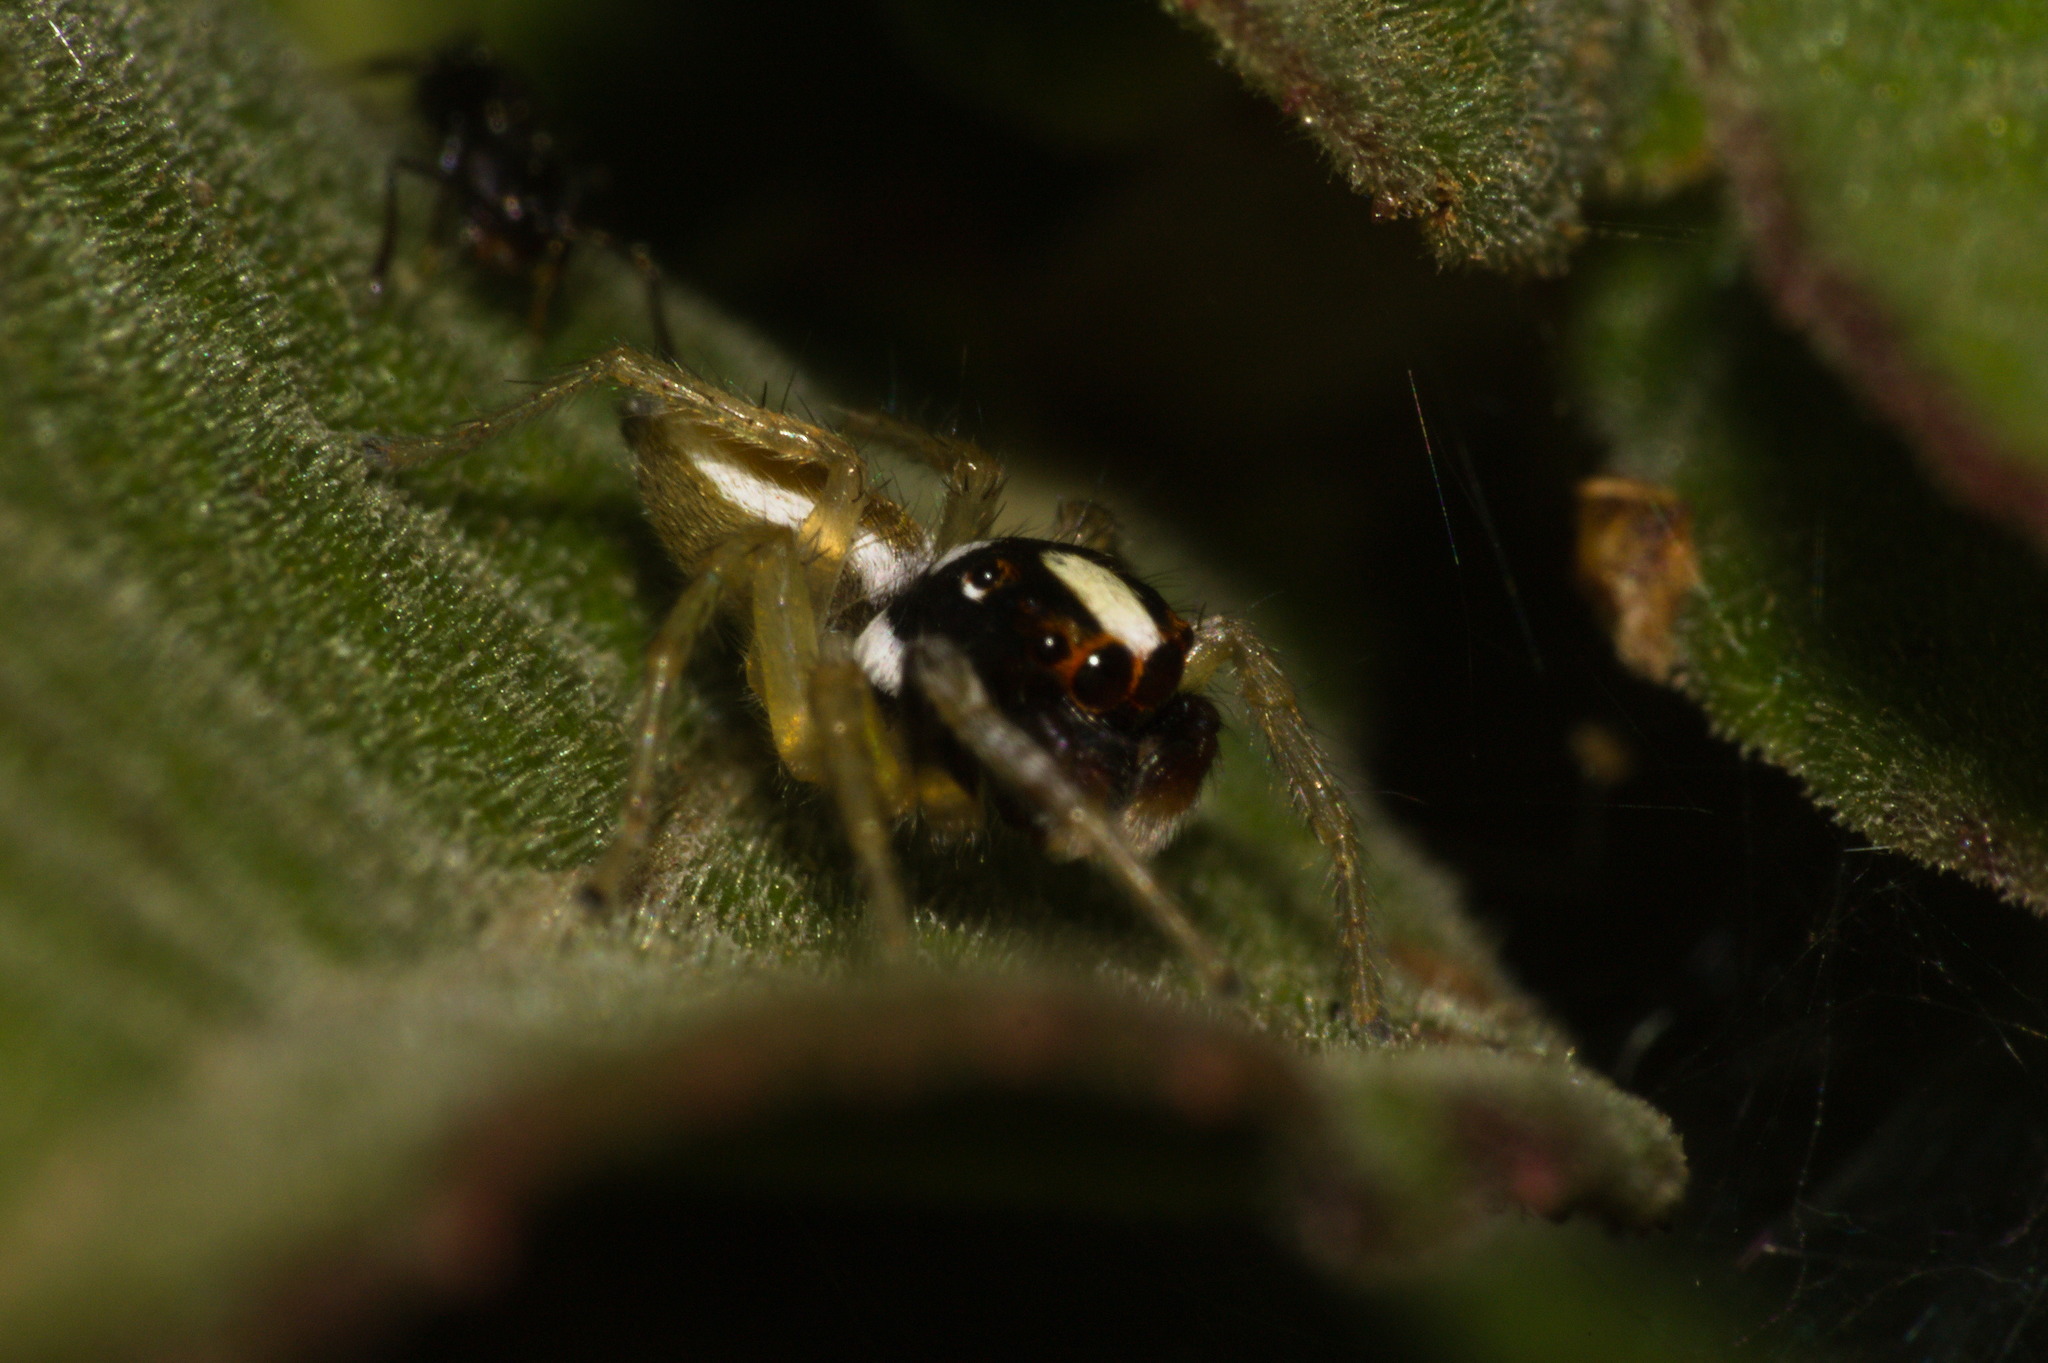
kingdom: Animalia
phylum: Arthropoda
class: Arachnida
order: Araneae
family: Salticidae
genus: Chira
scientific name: Chira spinosa
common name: Jumping spiders
